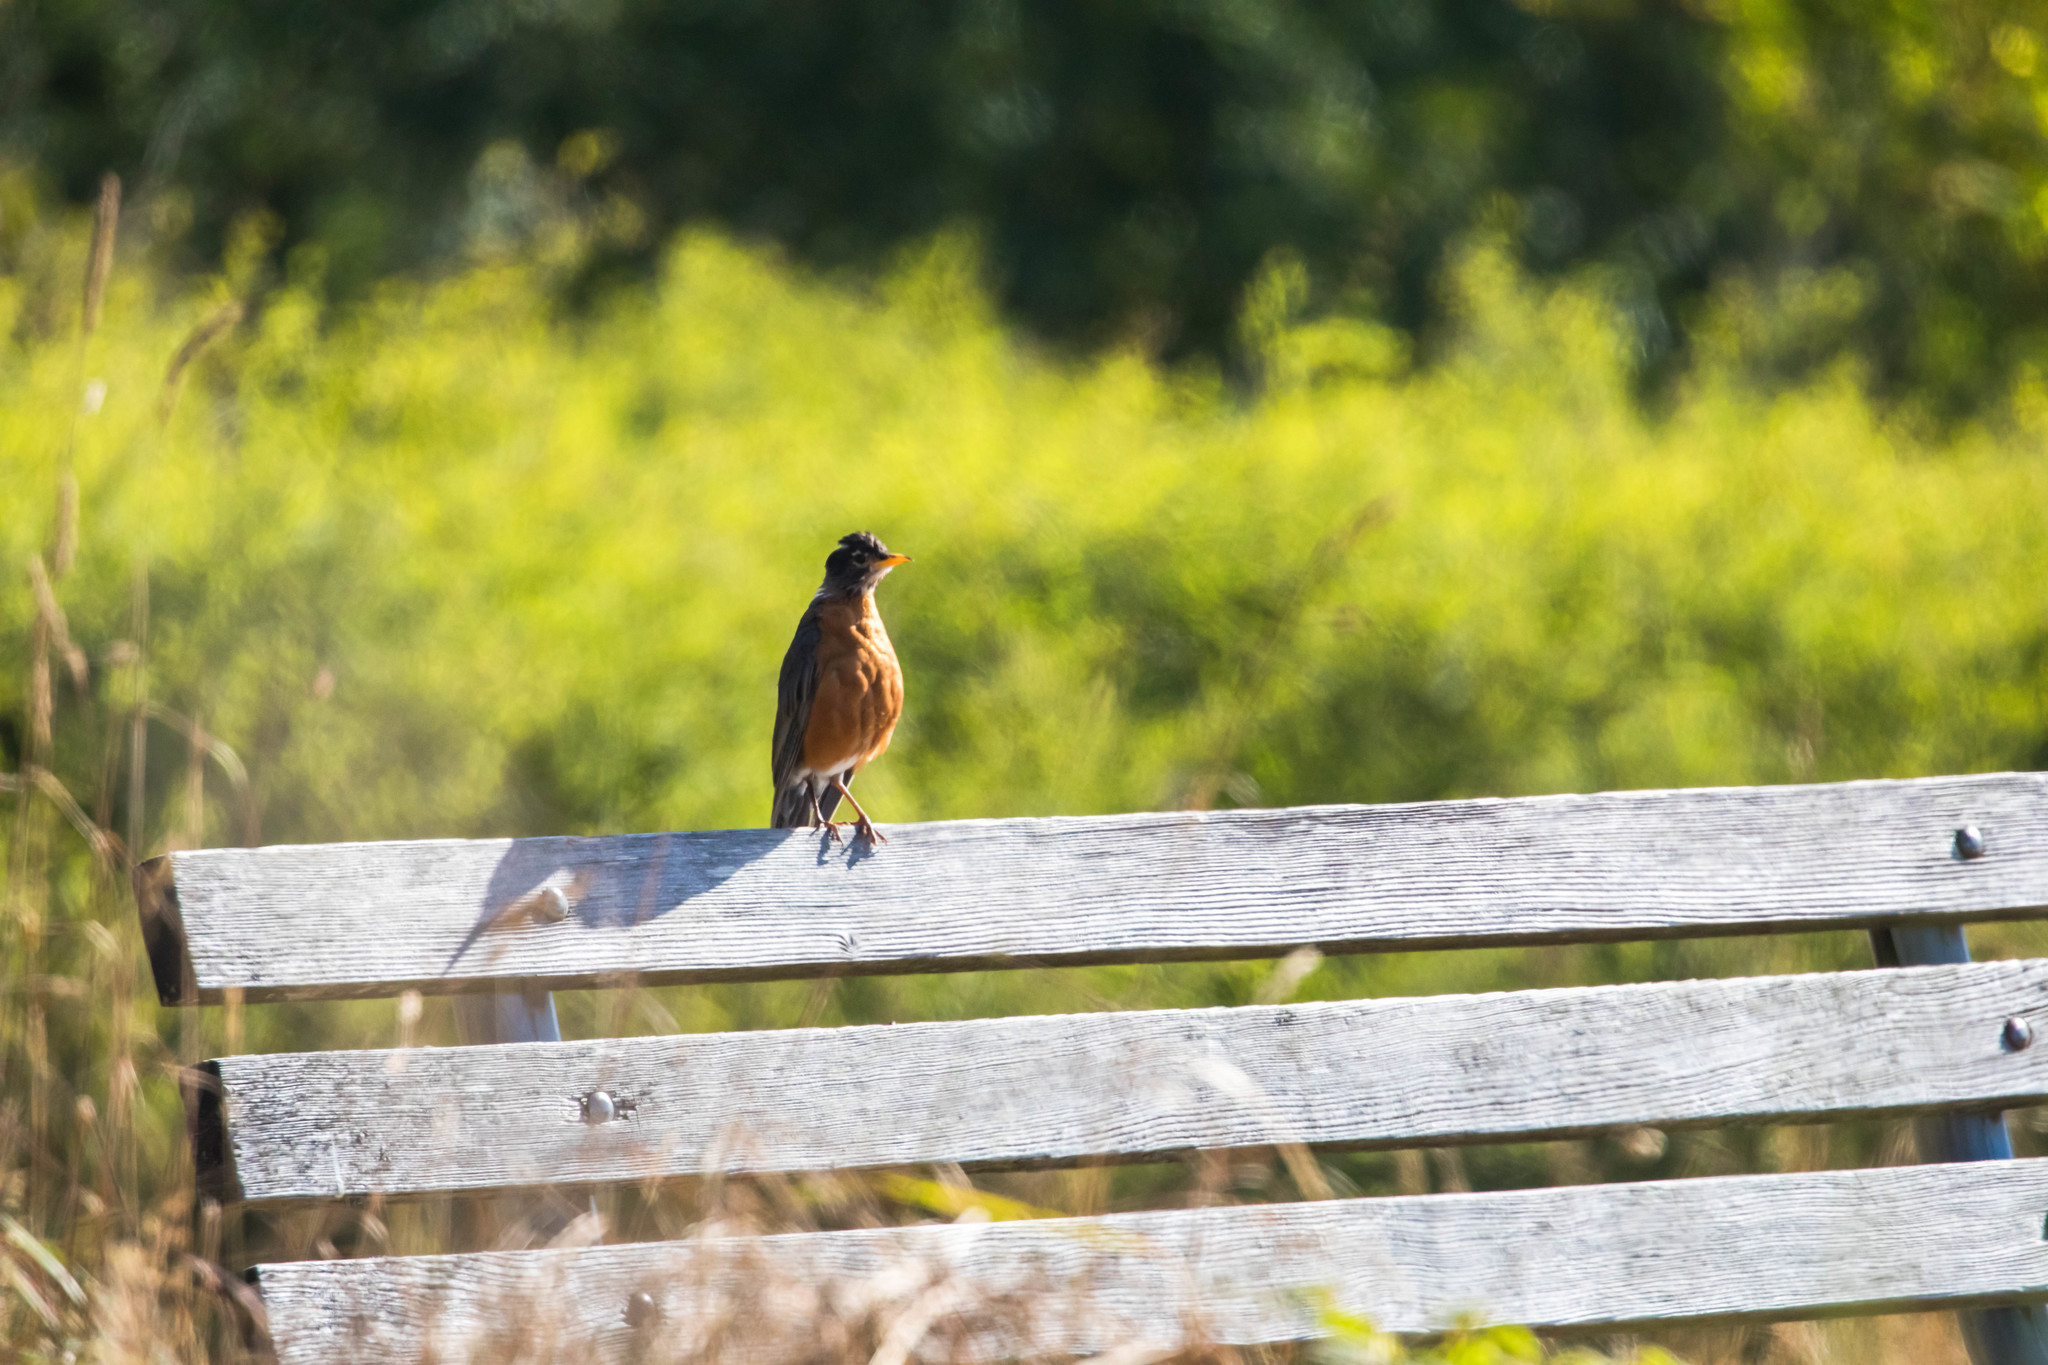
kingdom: Animalia
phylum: Chordata
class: Aves
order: Passeriformes
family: Turdidae
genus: Turdus
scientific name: Turdus migratorius
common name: American robin
